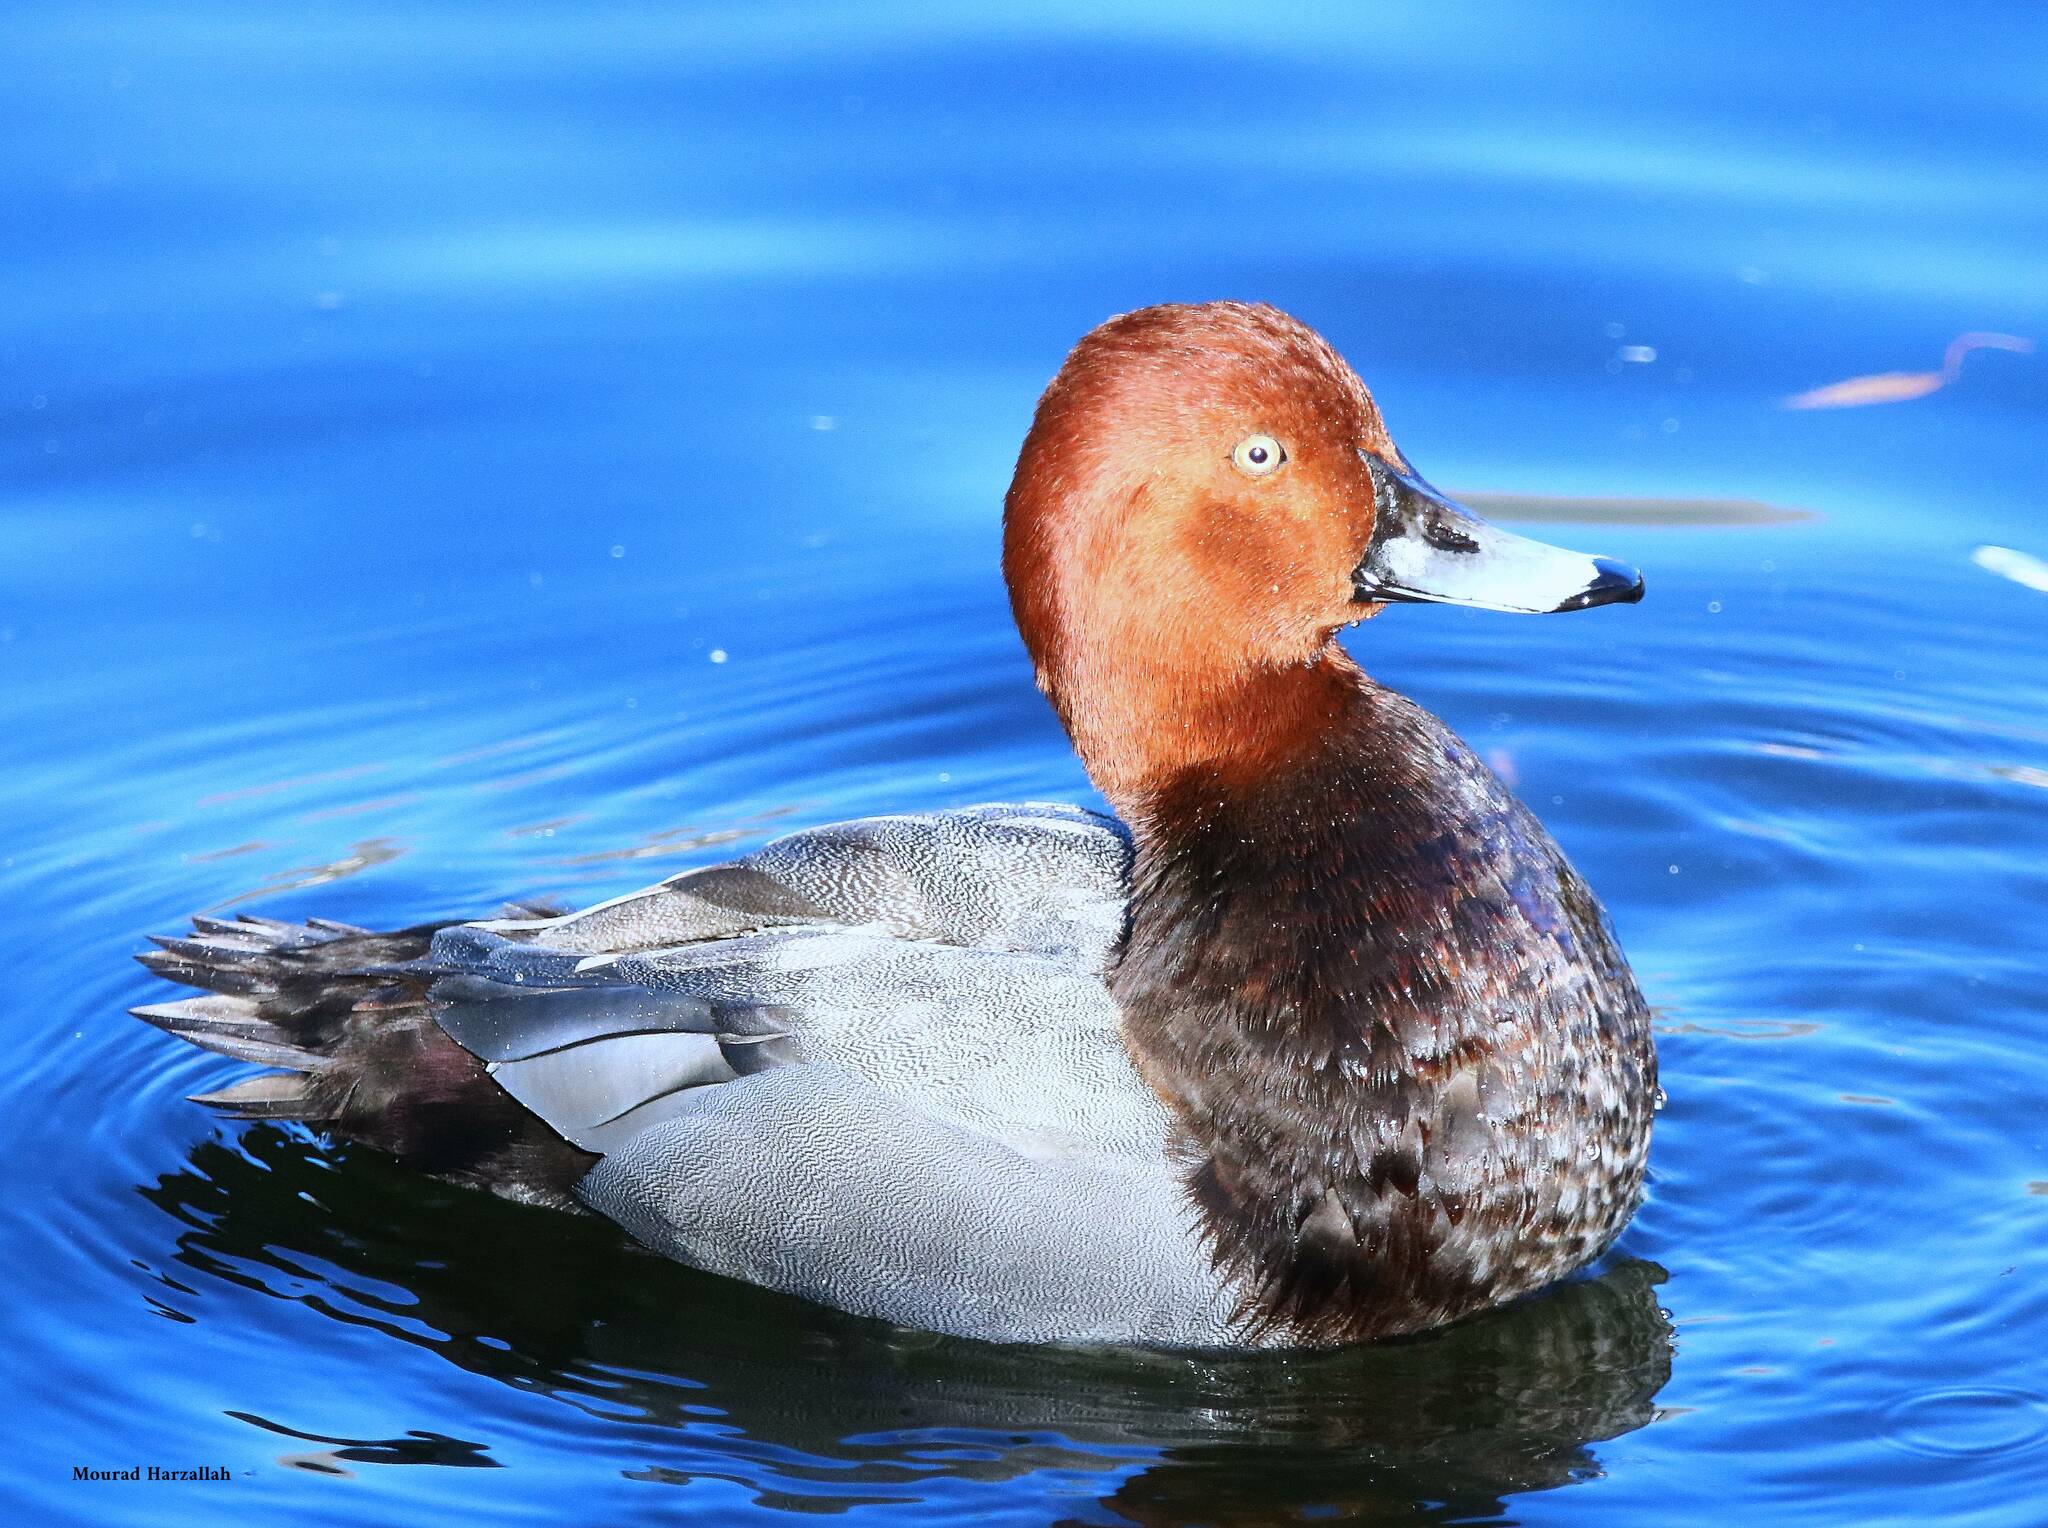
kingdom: Animalia
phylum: Chordata
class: Aves
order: Anseriformes
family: Anatidae
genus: Aythya
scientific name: Aythya ferina
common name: Common pochard
